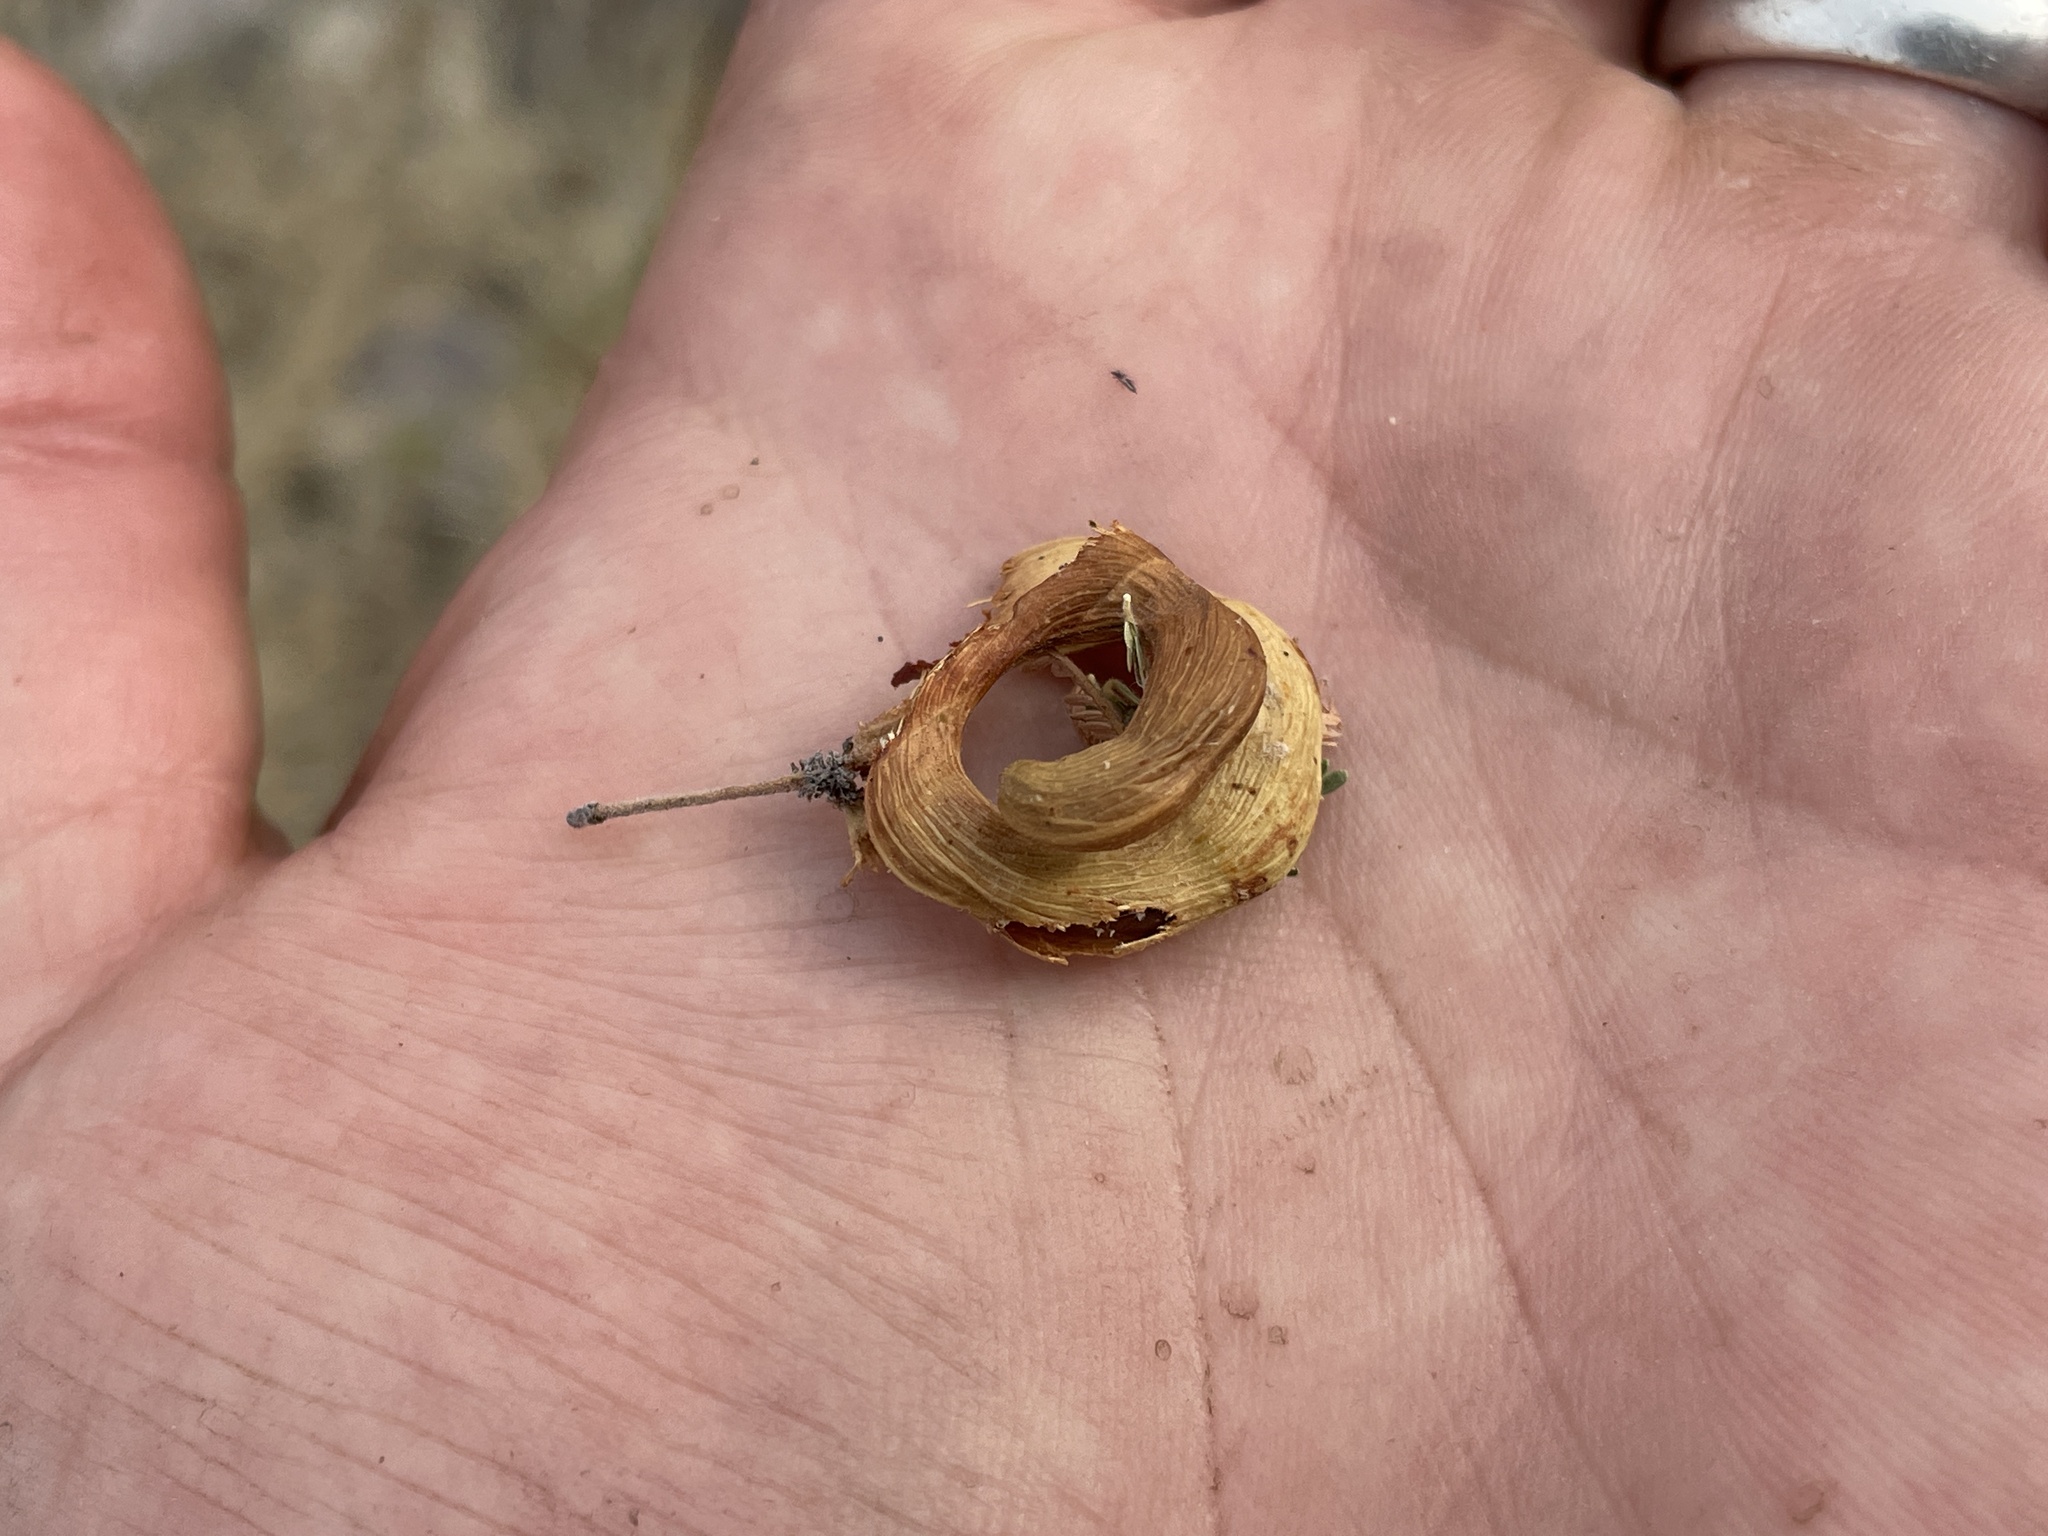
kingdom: Plantae
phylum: Tracheophyta
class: Magnoliopsida
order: Fabales
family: Fabaceae
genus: Vachellia
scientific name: Vachellia tortilis
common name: Umbrella thorn acacia
